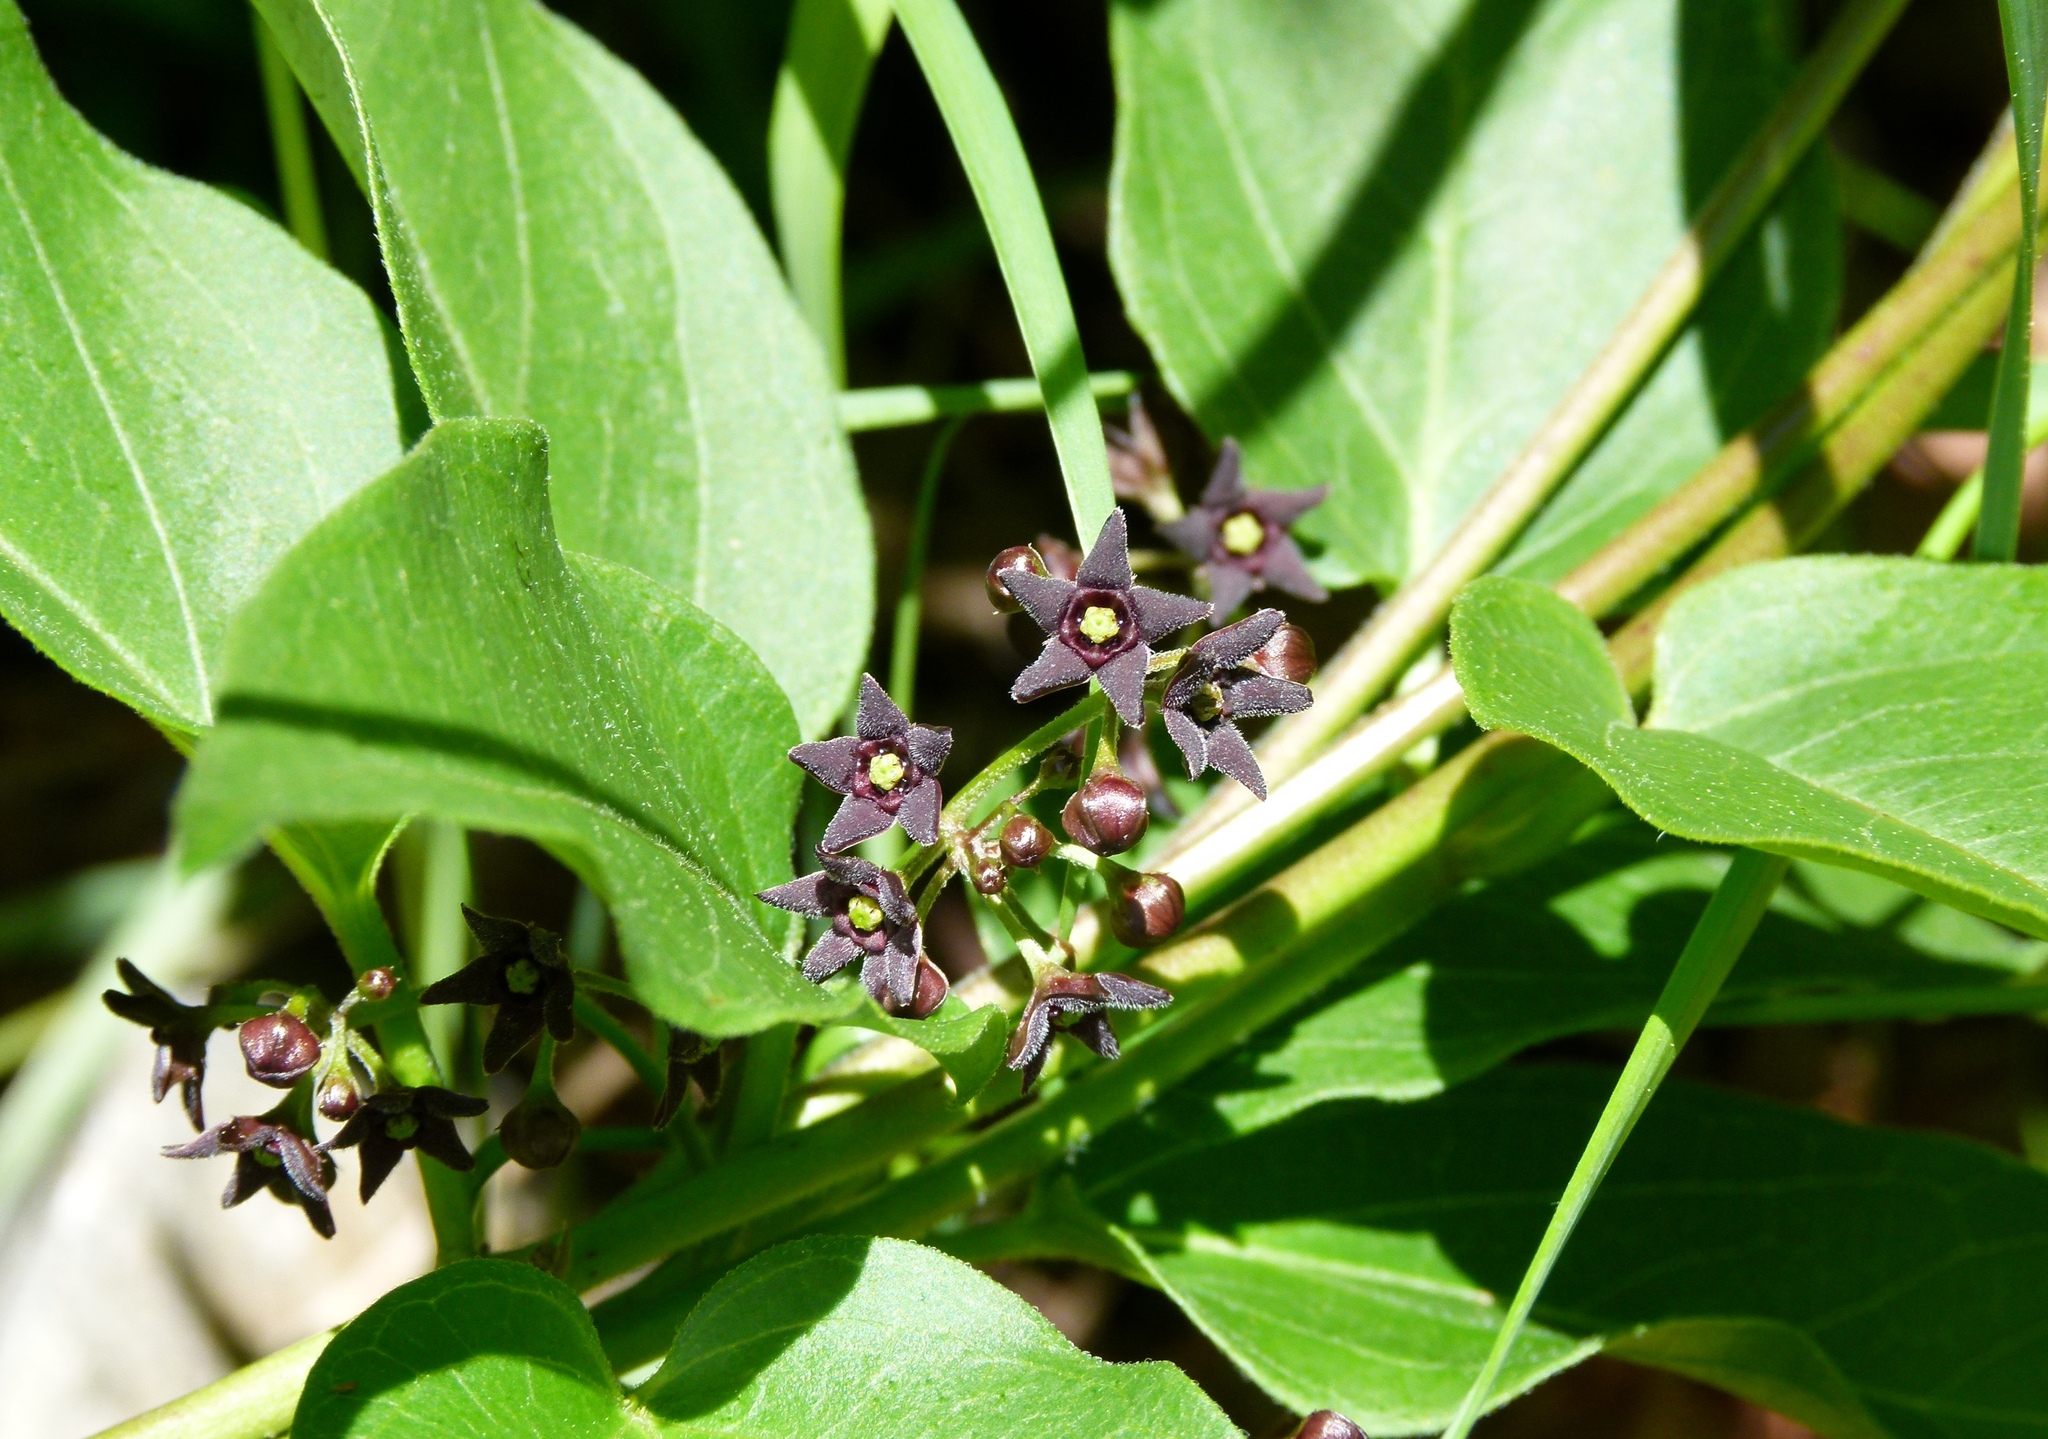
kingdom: Plantae
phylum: Tracheophyta
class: Magnoliopsida
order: Gentianales
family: Apocynaceae
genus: Vincetoxicum
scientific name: Vincetoxicum nigrum
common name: Black swallow-wort
